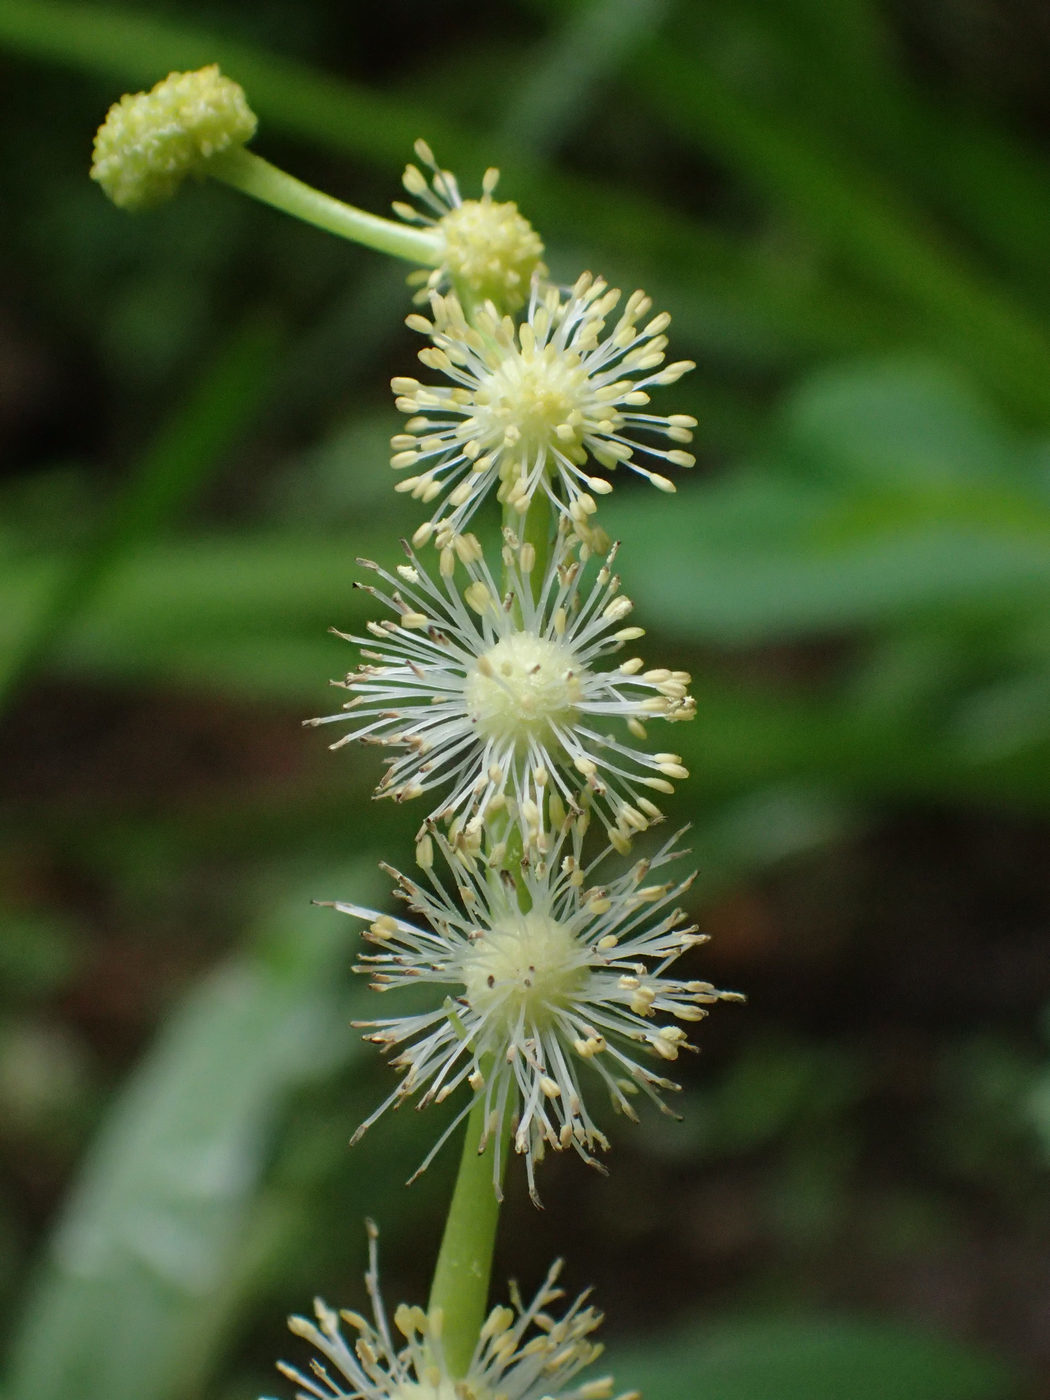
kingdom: Plantae
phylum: Tracheophyta
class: Liliopsida
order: Poales
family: Typhaceae
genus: Sparganium
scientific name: Sparganium americanum
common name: American burreed
